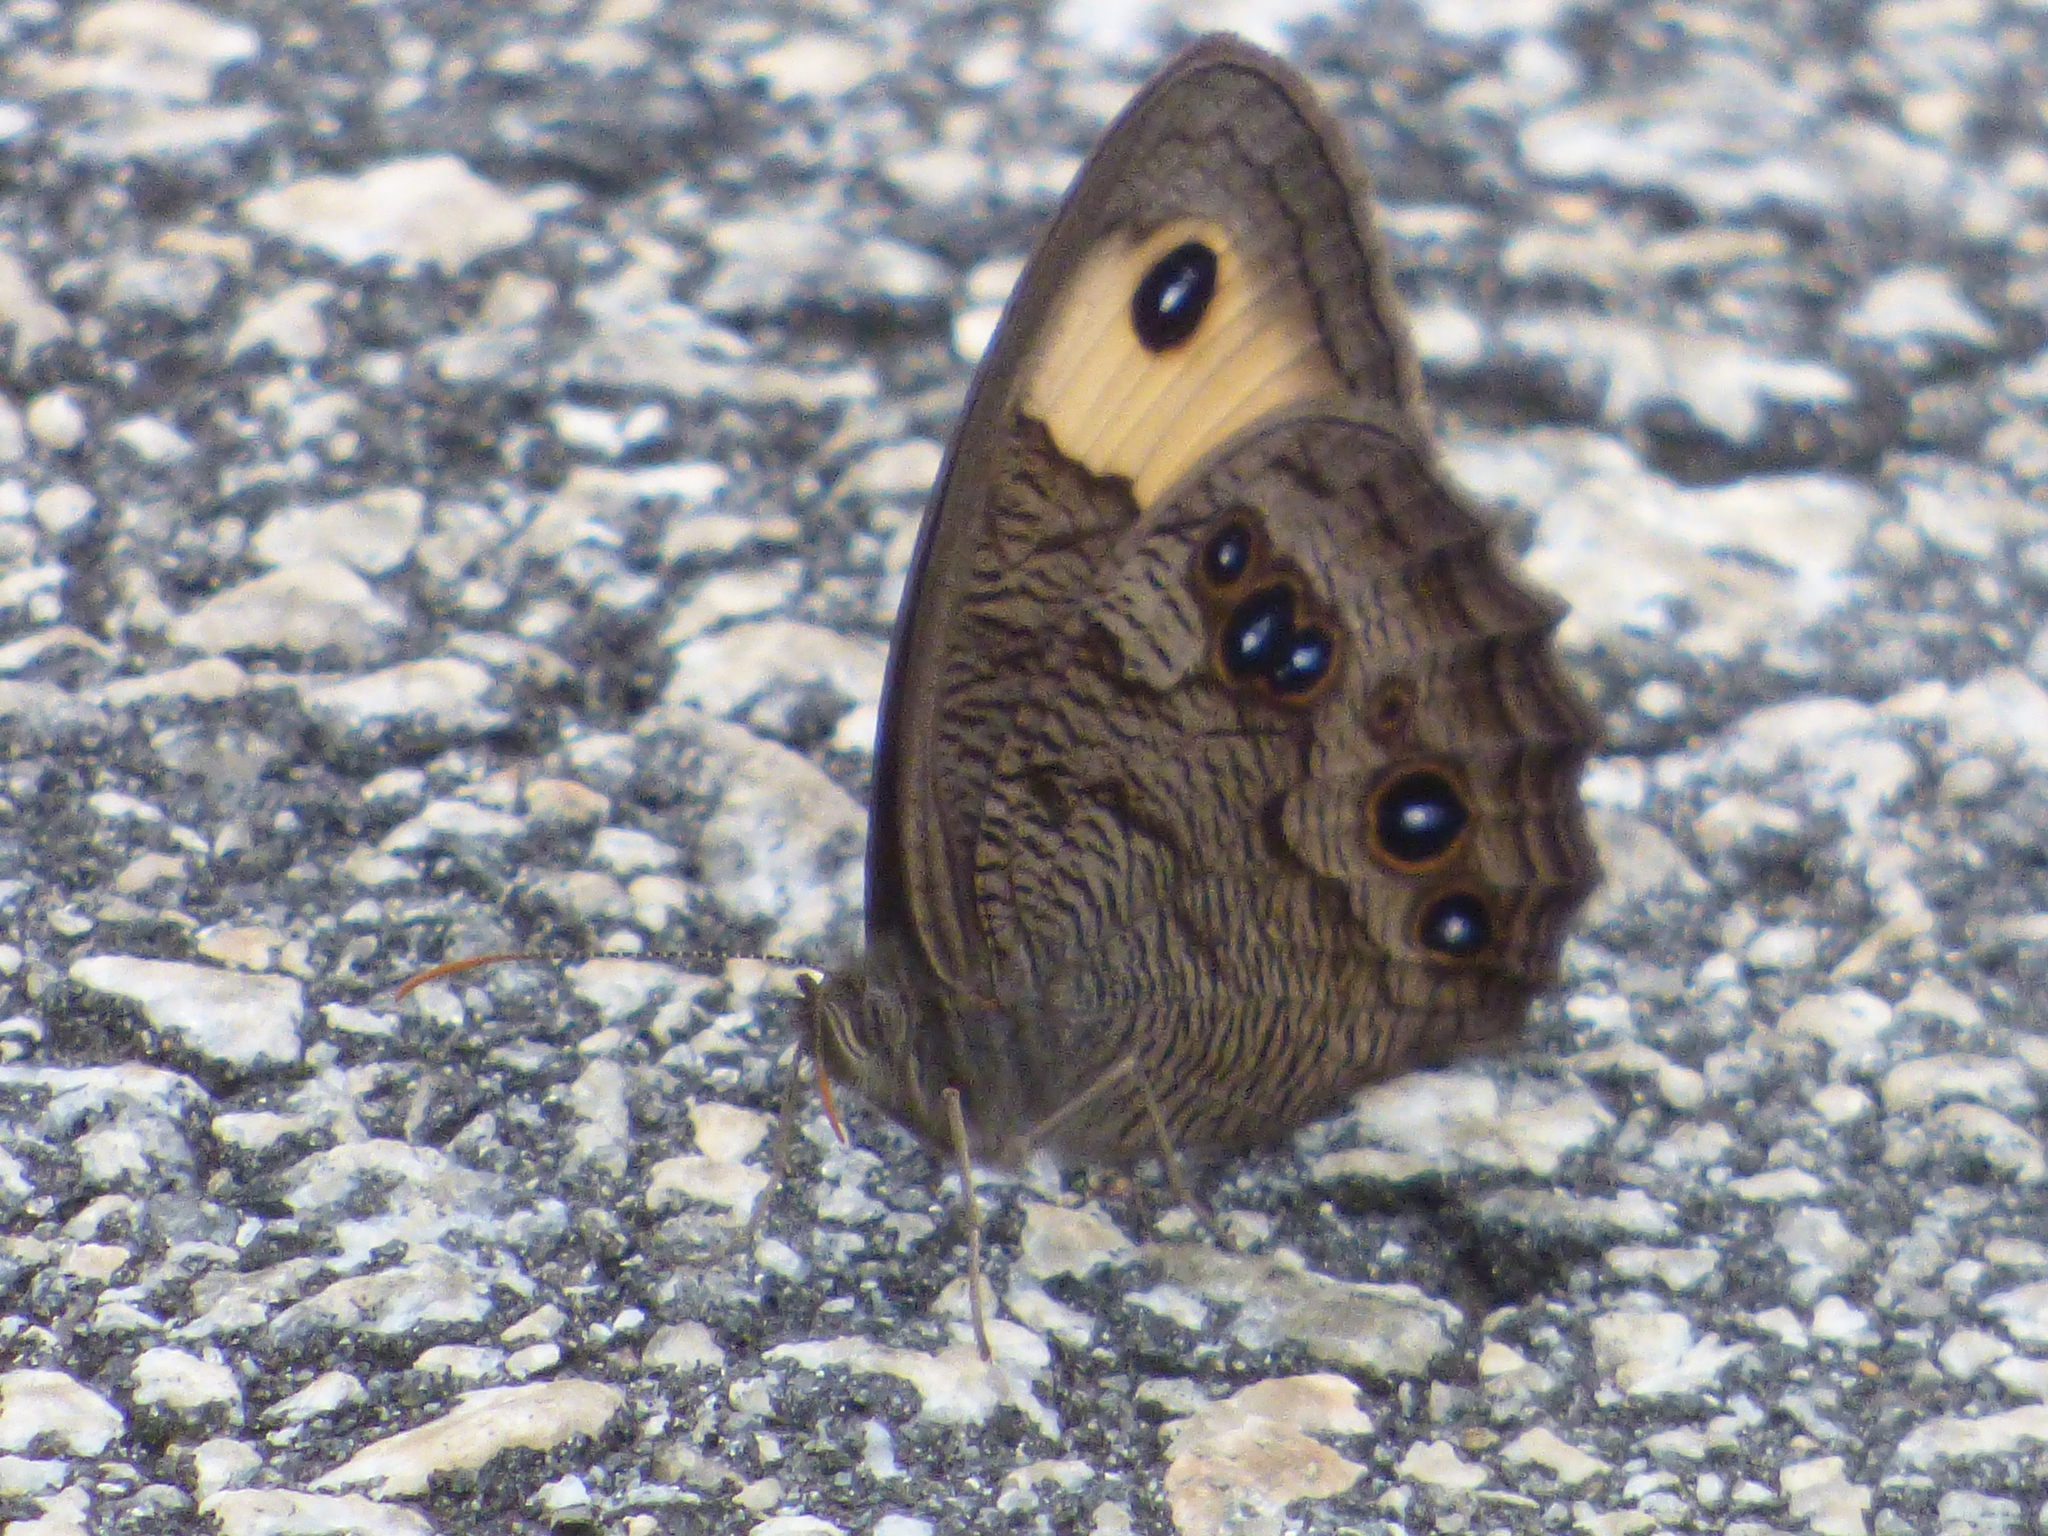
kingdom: Animalia
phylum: Arthropoda
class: Insecta
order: Lepidoptera
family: Nymphalidae
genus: Cercyonis
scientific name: Cercyonis pegala
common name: Common wood-nymph
